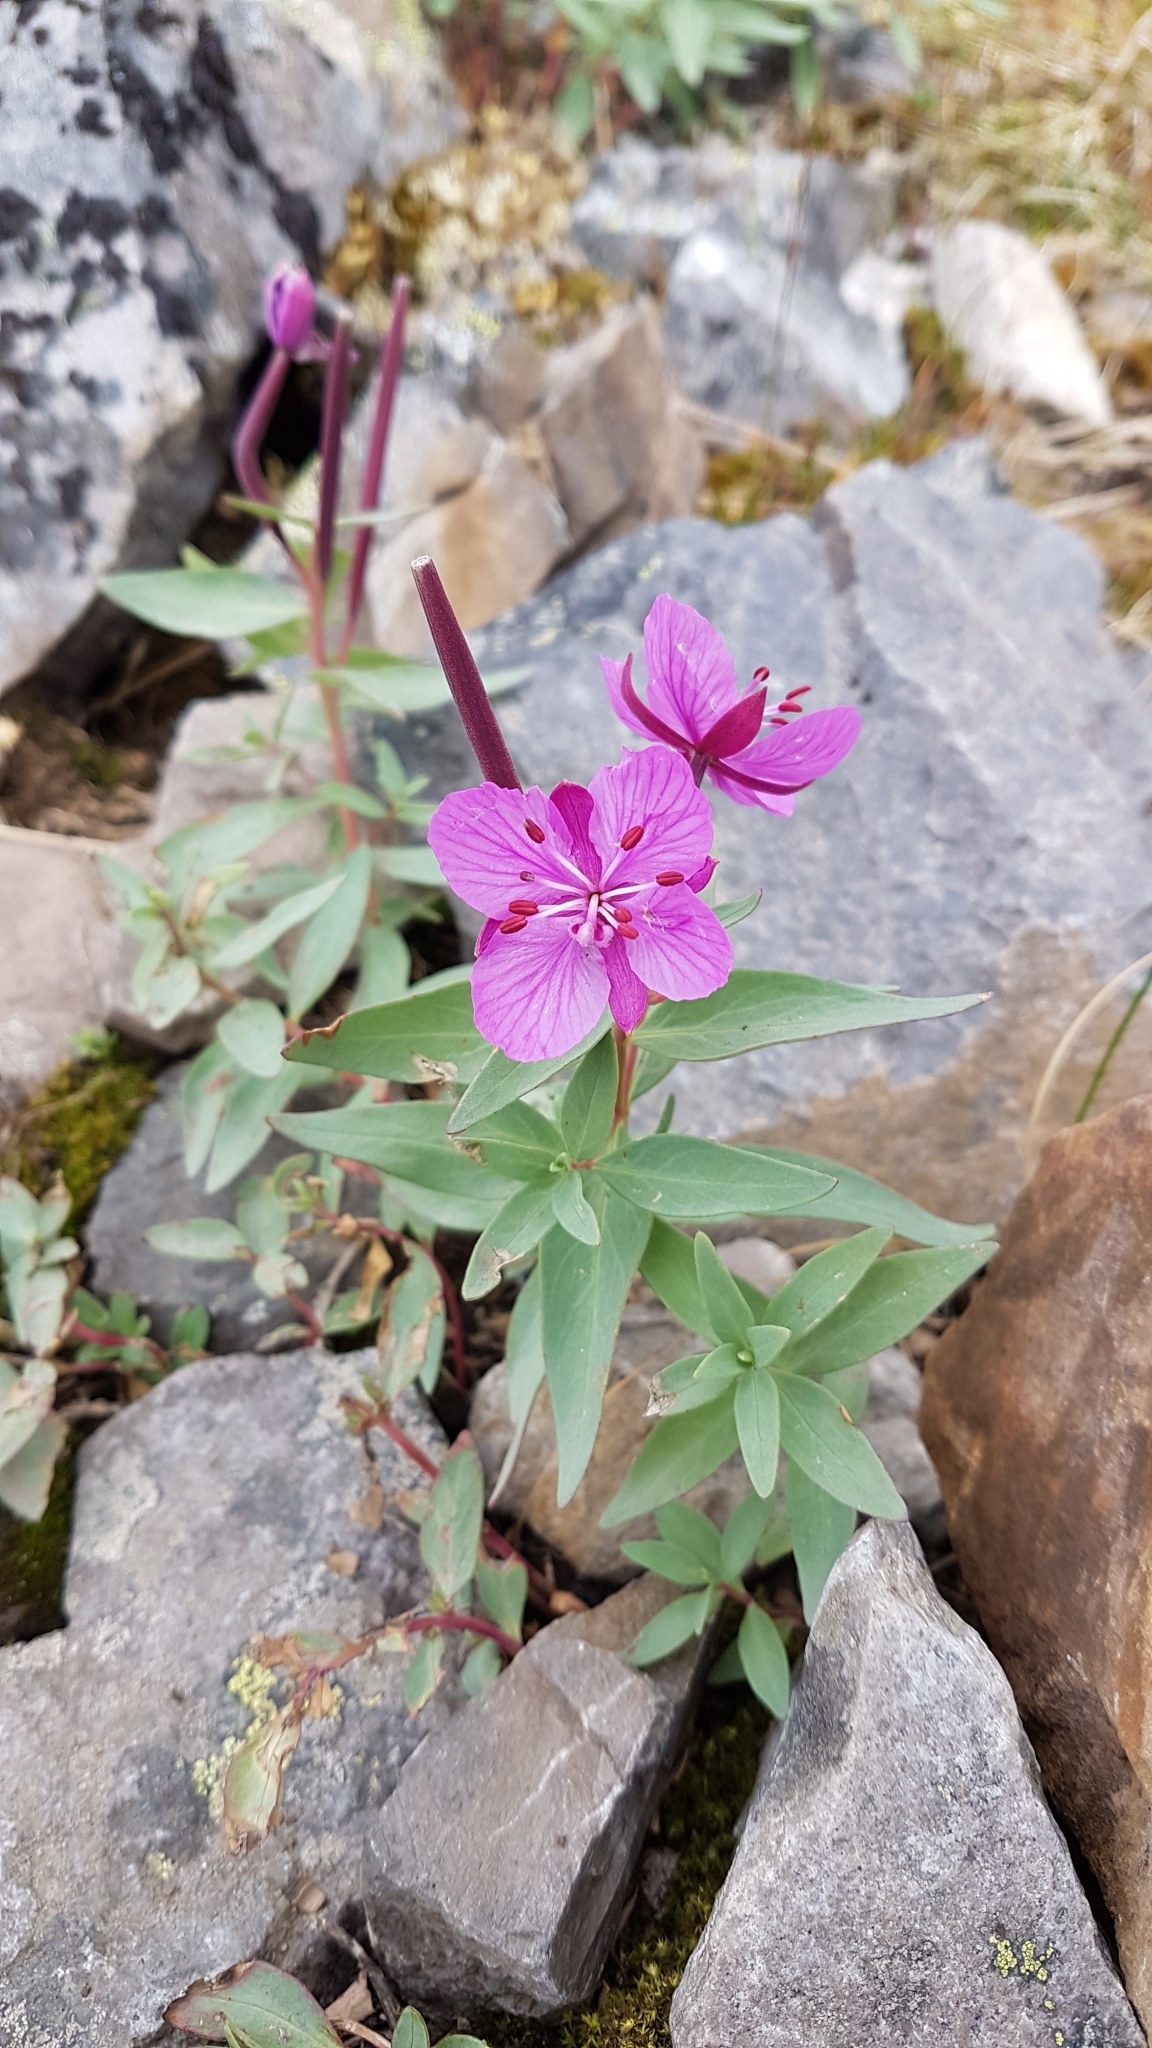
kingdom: Plantae
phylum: Tracheophyta
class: Magnoliopsida
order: Myrtales
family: Onagraceae
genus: Chamaenerion
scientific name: Chamaenerion latifolium
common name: Dwarf fireweed
